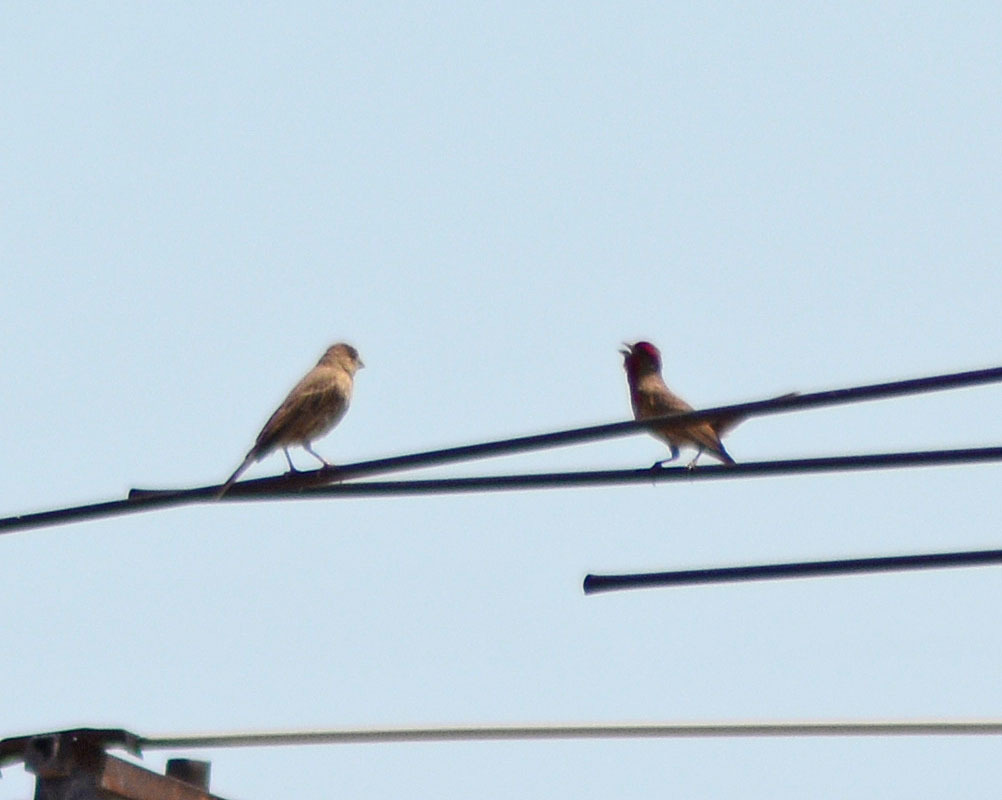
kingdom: Animalia
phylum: Chordata
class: Aves
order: Passeriformes
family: Fringillidae
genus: Haemorhous
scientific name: Haemorhous mexicanus
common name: House finch
